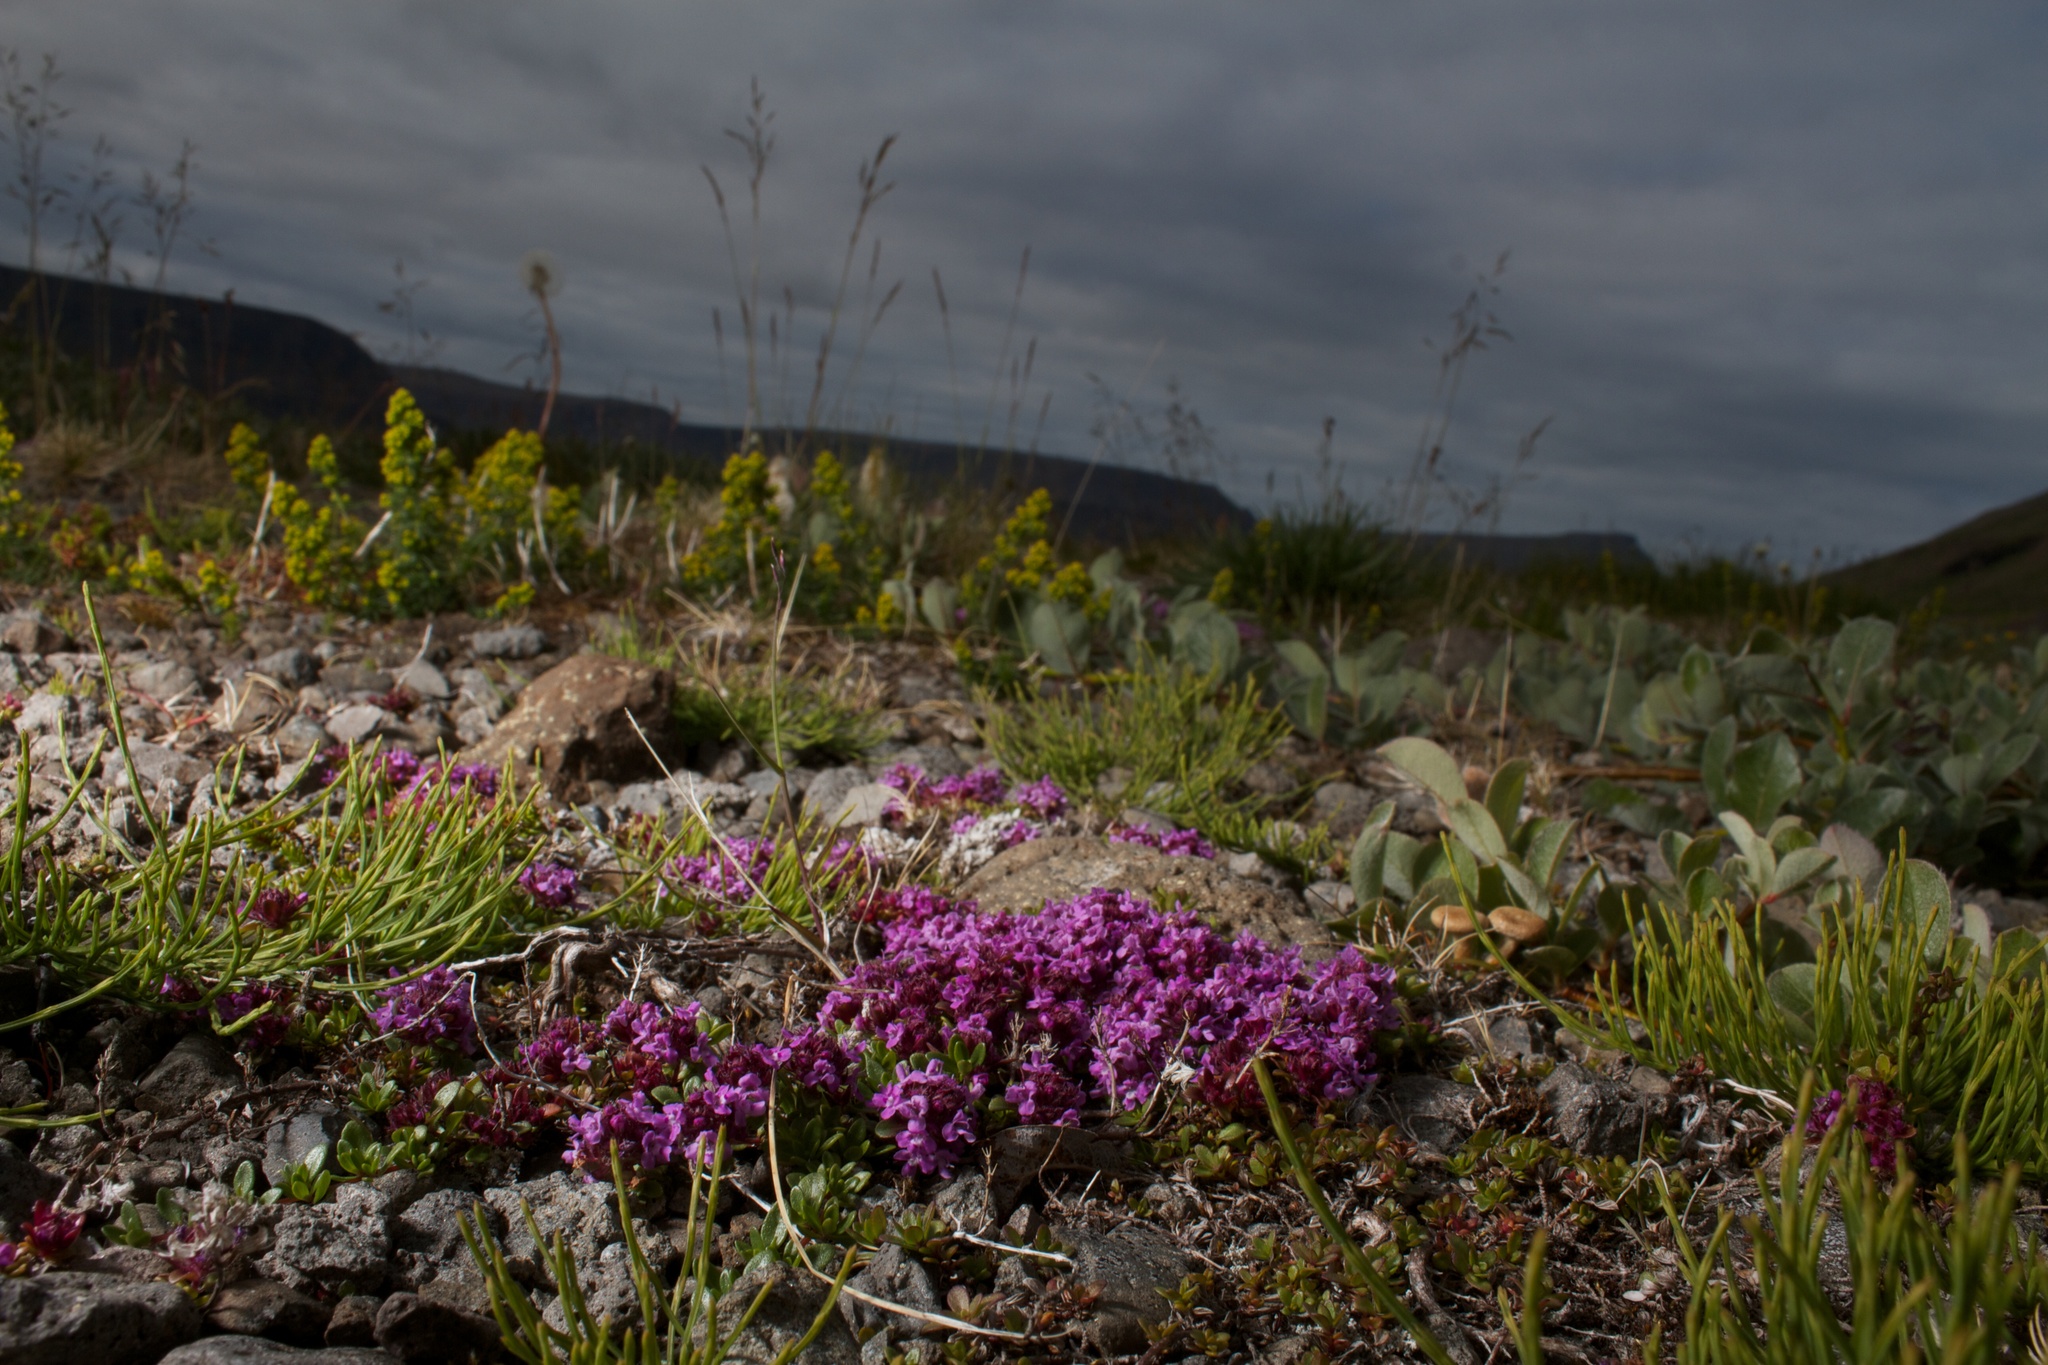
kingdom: Plantae
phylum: Tracheophyta
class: Magnoliopsida
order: Saxifragales
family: Saxifragaceae
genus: Saxifraga
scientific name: Saxifraga oppositifolia
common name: Purple saxifrage
